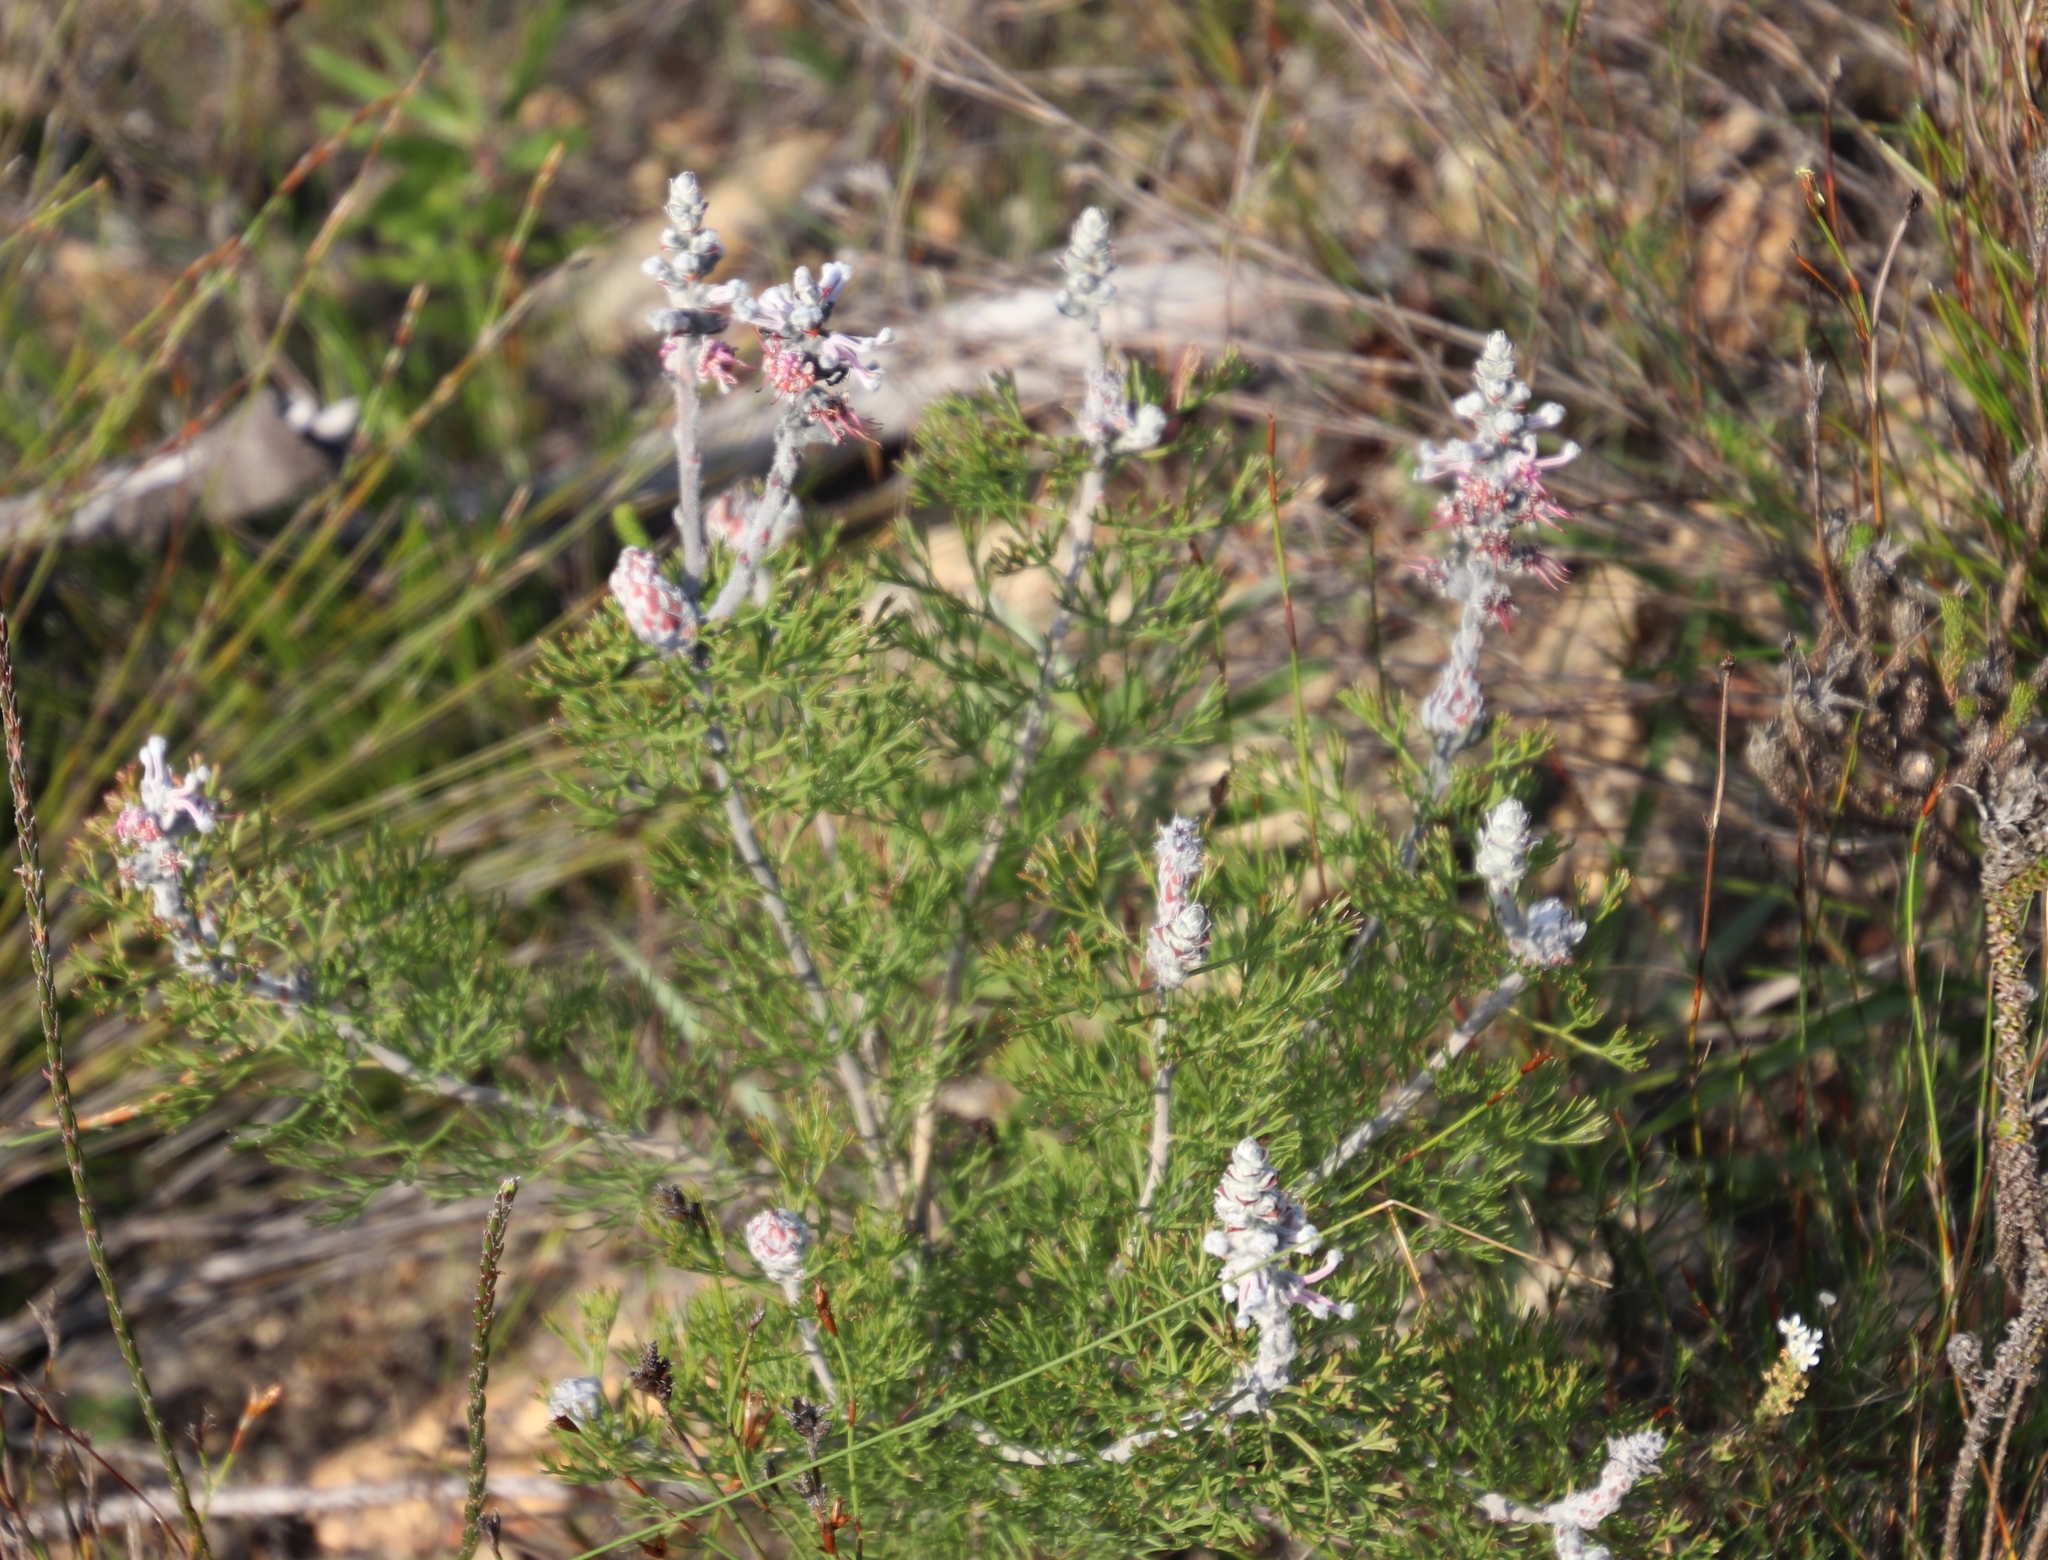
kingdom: Plantae
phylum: Tracheophyta
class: Magnoliopsida
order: Proteales
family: Proteaceae
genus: Paranomus
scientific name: Paranomus bolusii
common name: Overberg sceptre
